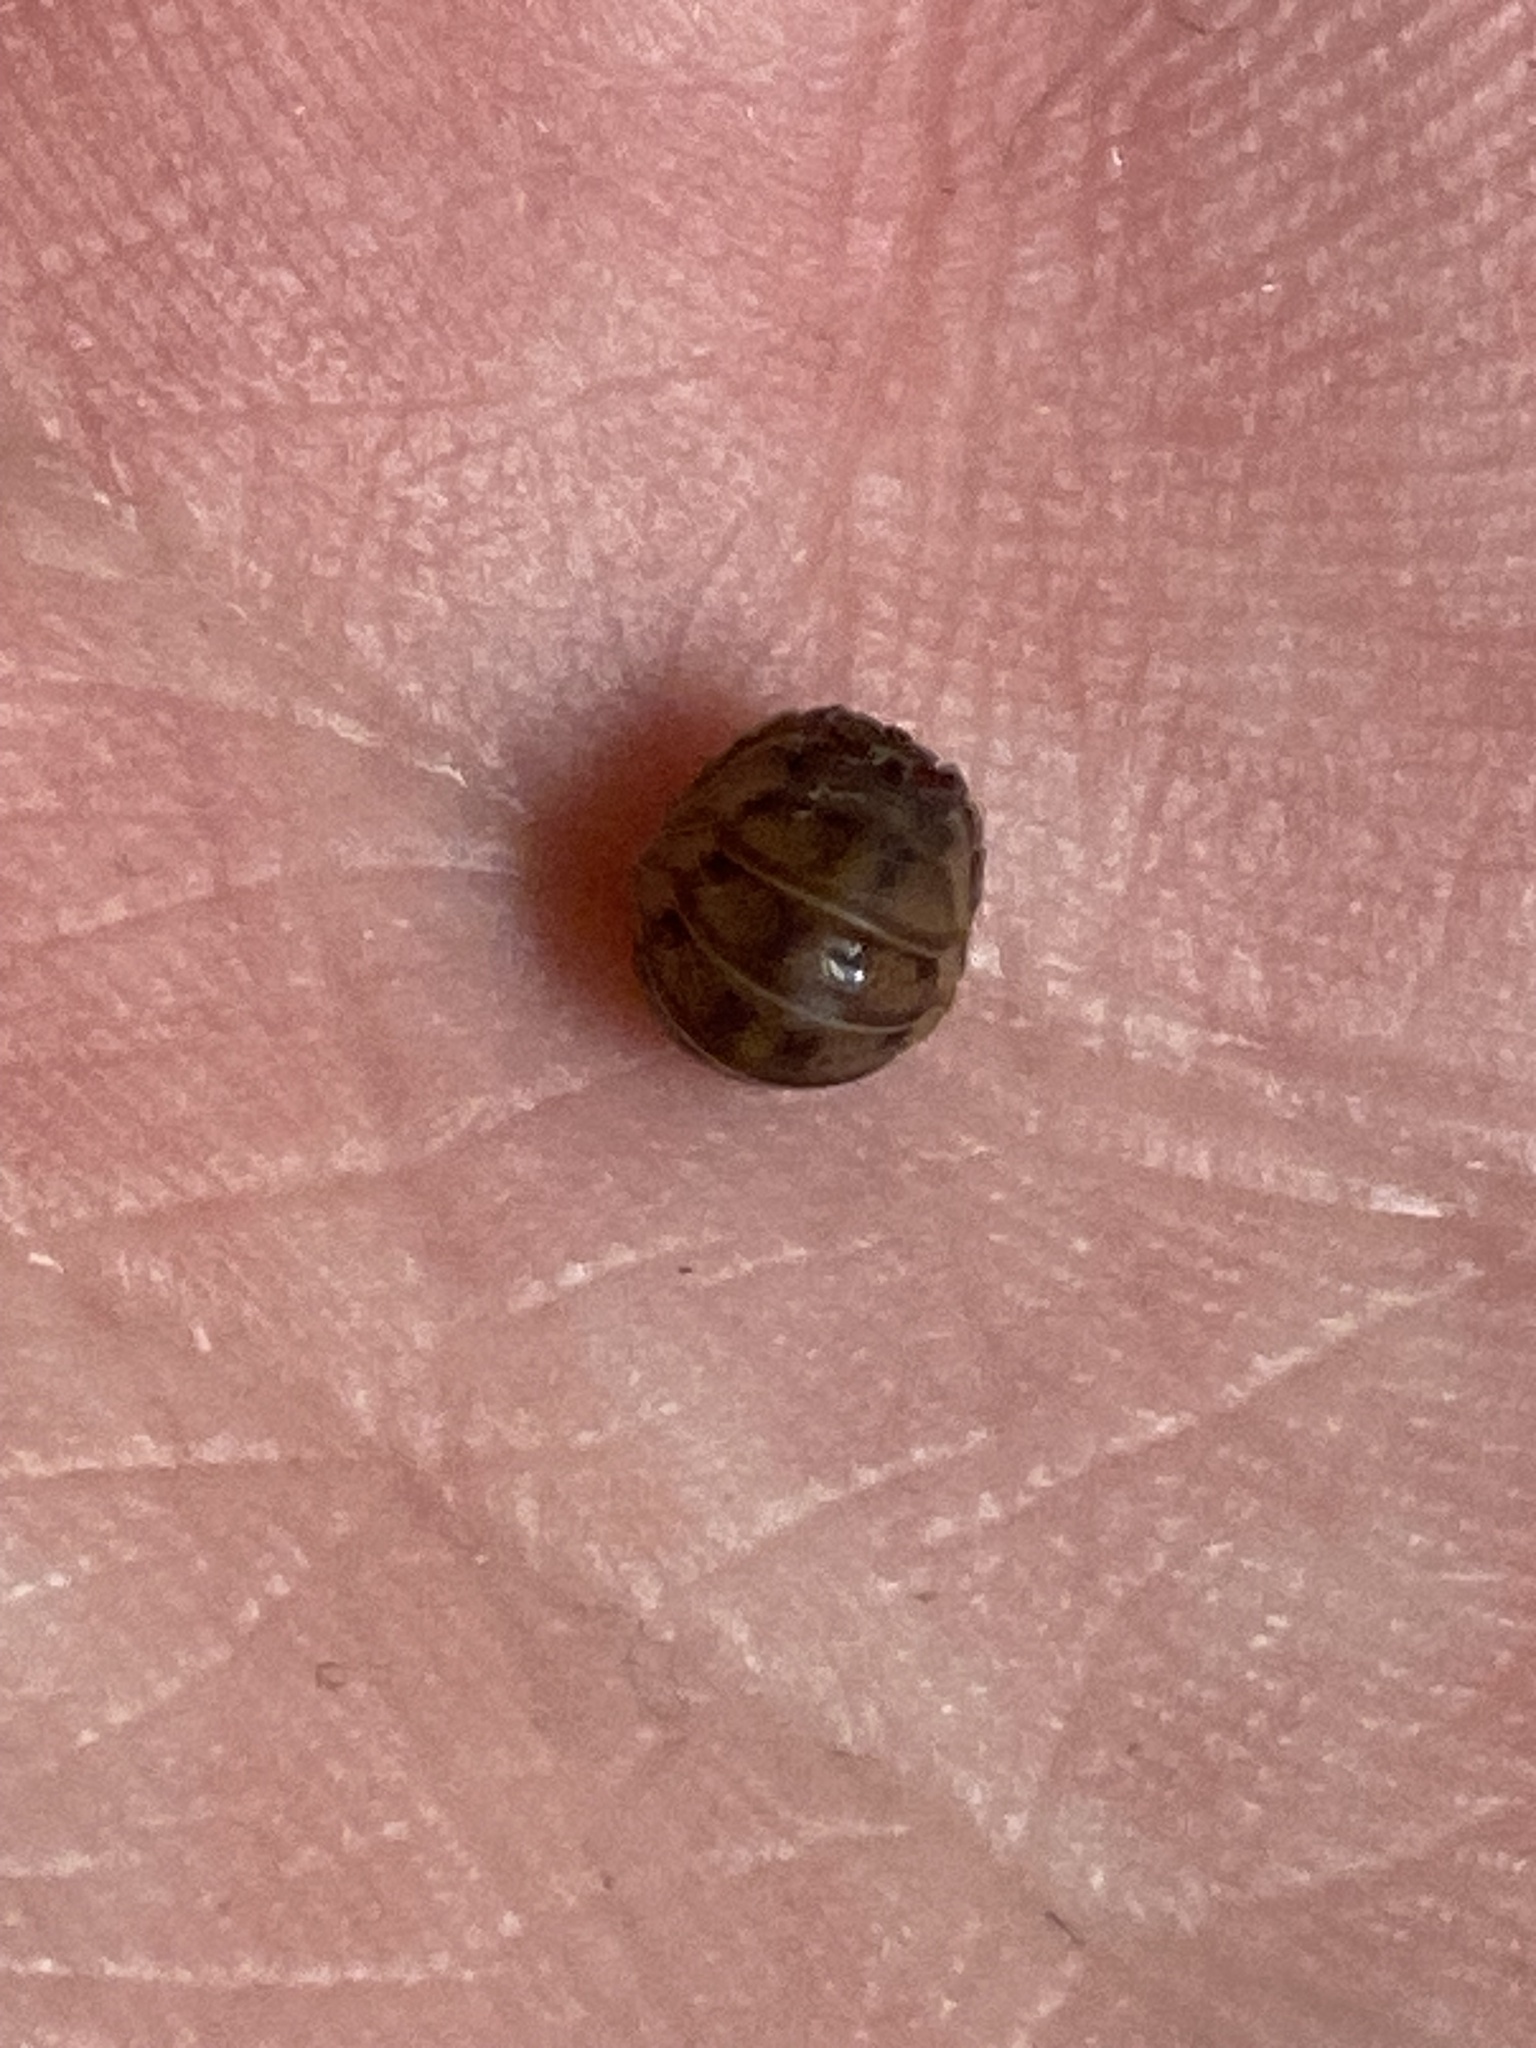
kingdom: Animalia
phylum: Arthropoda
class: Malacostraca
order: Isopoda
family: Armadillidiidae
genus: Armadillidium
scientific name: Armadillidium nasatum
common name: Isopod
